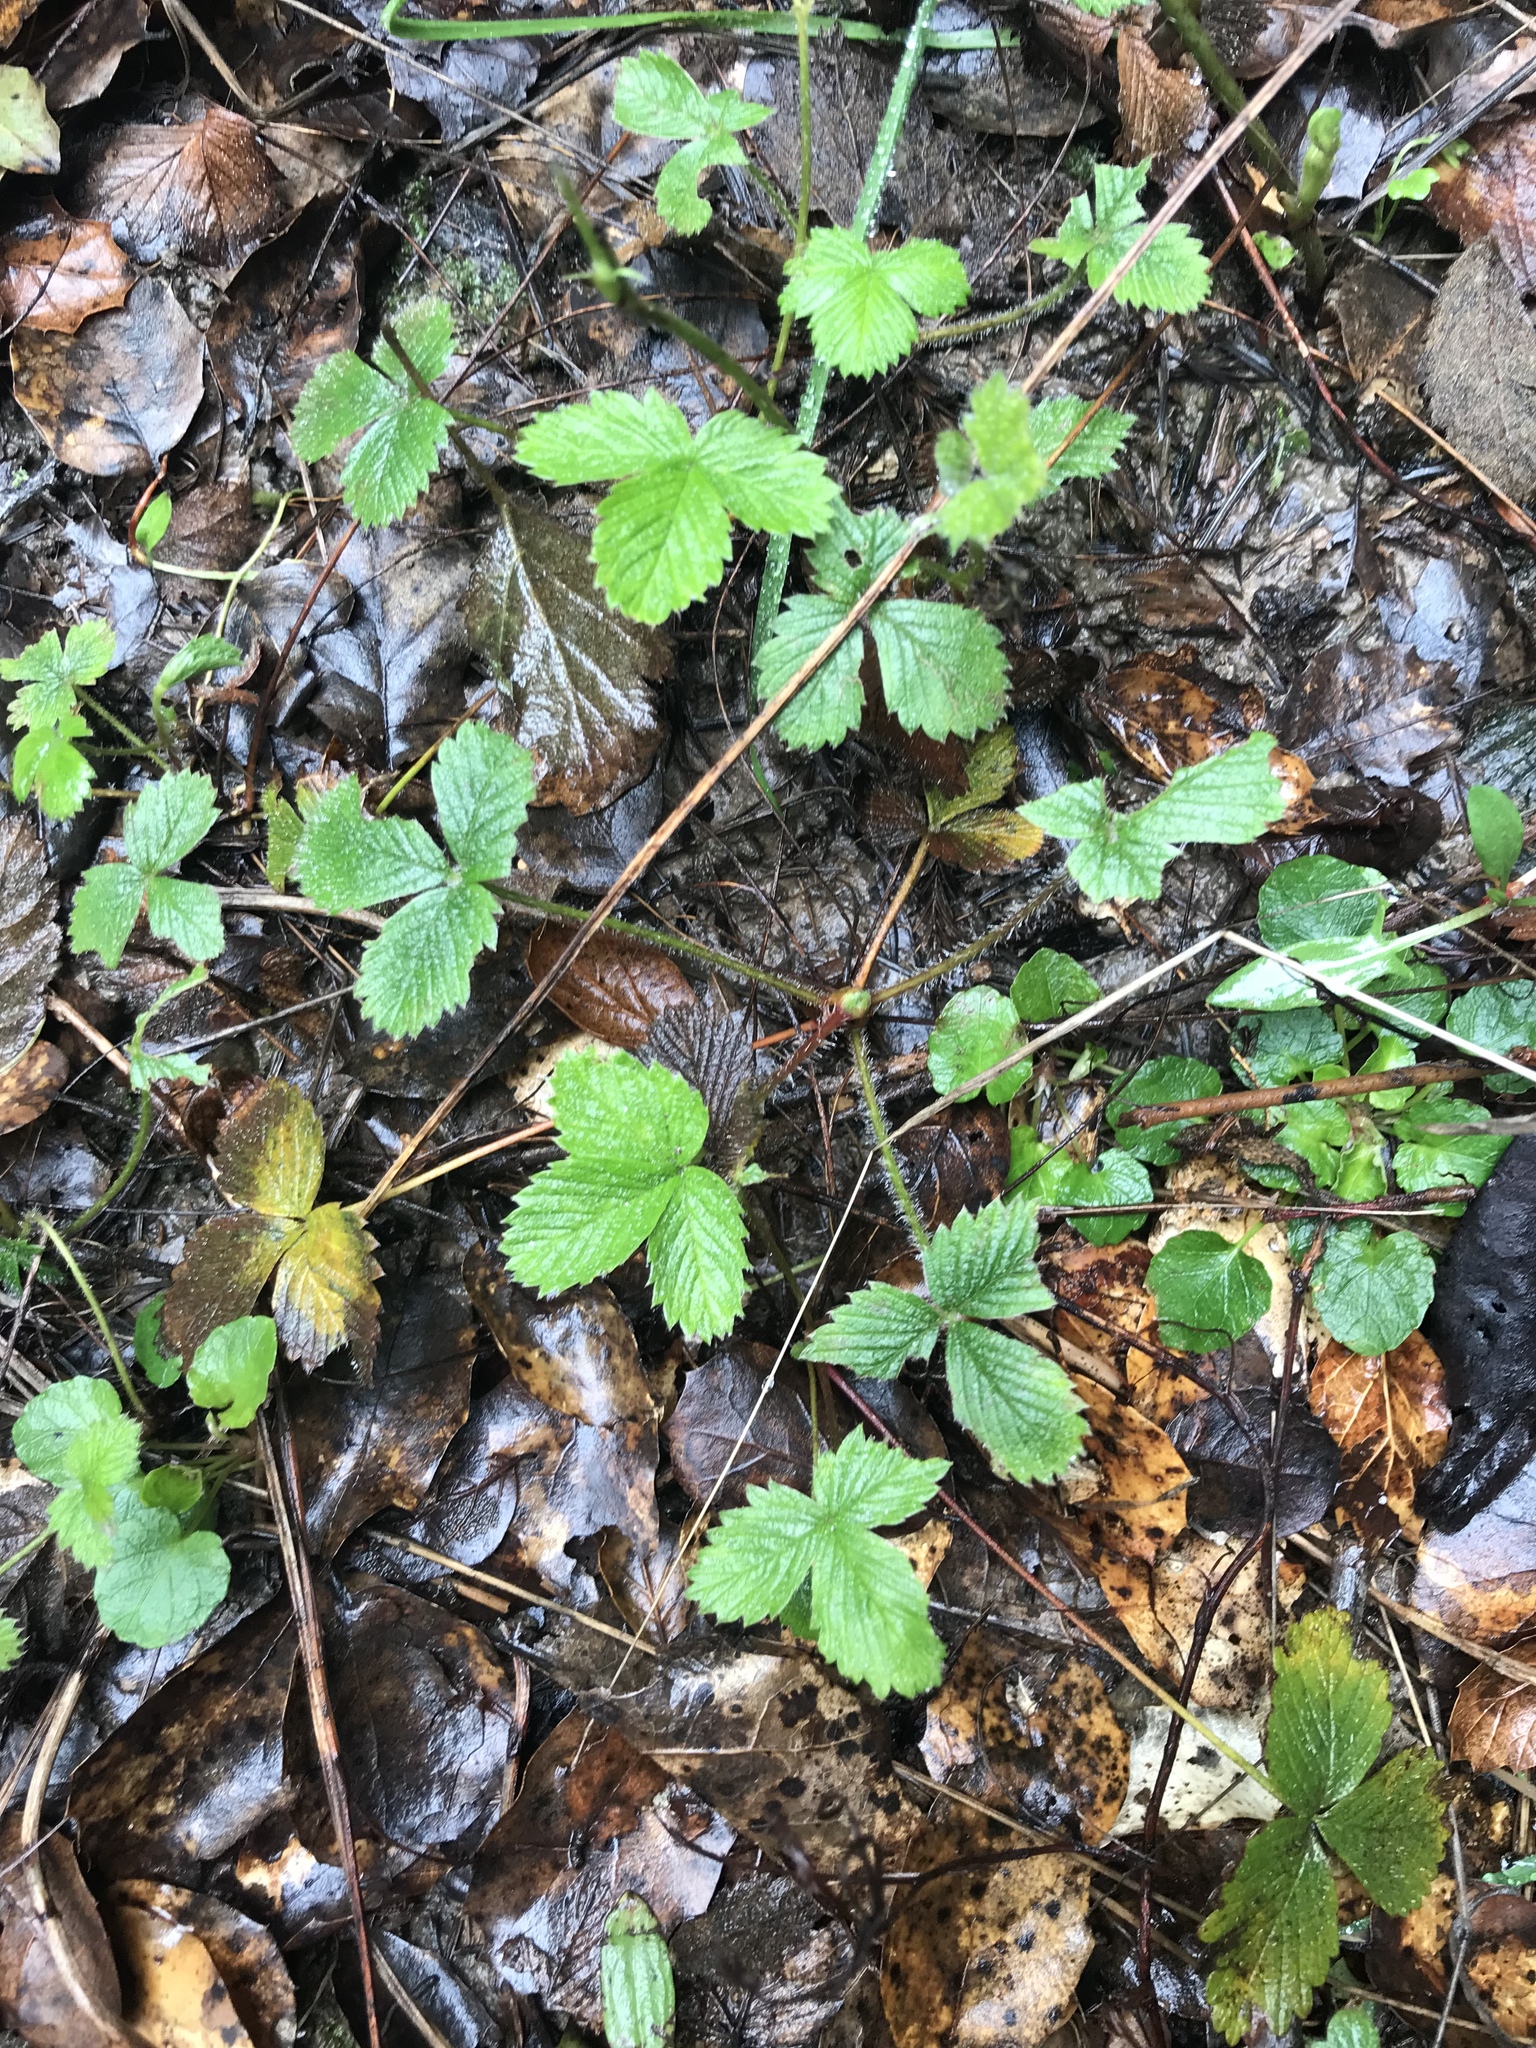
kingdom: Plantae
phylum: Tracheophyta
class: Magnoliopsida
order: Rosales
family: Rosaceae
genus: Fragaria
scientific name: Fragaria vesca
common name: Wild strawberry
